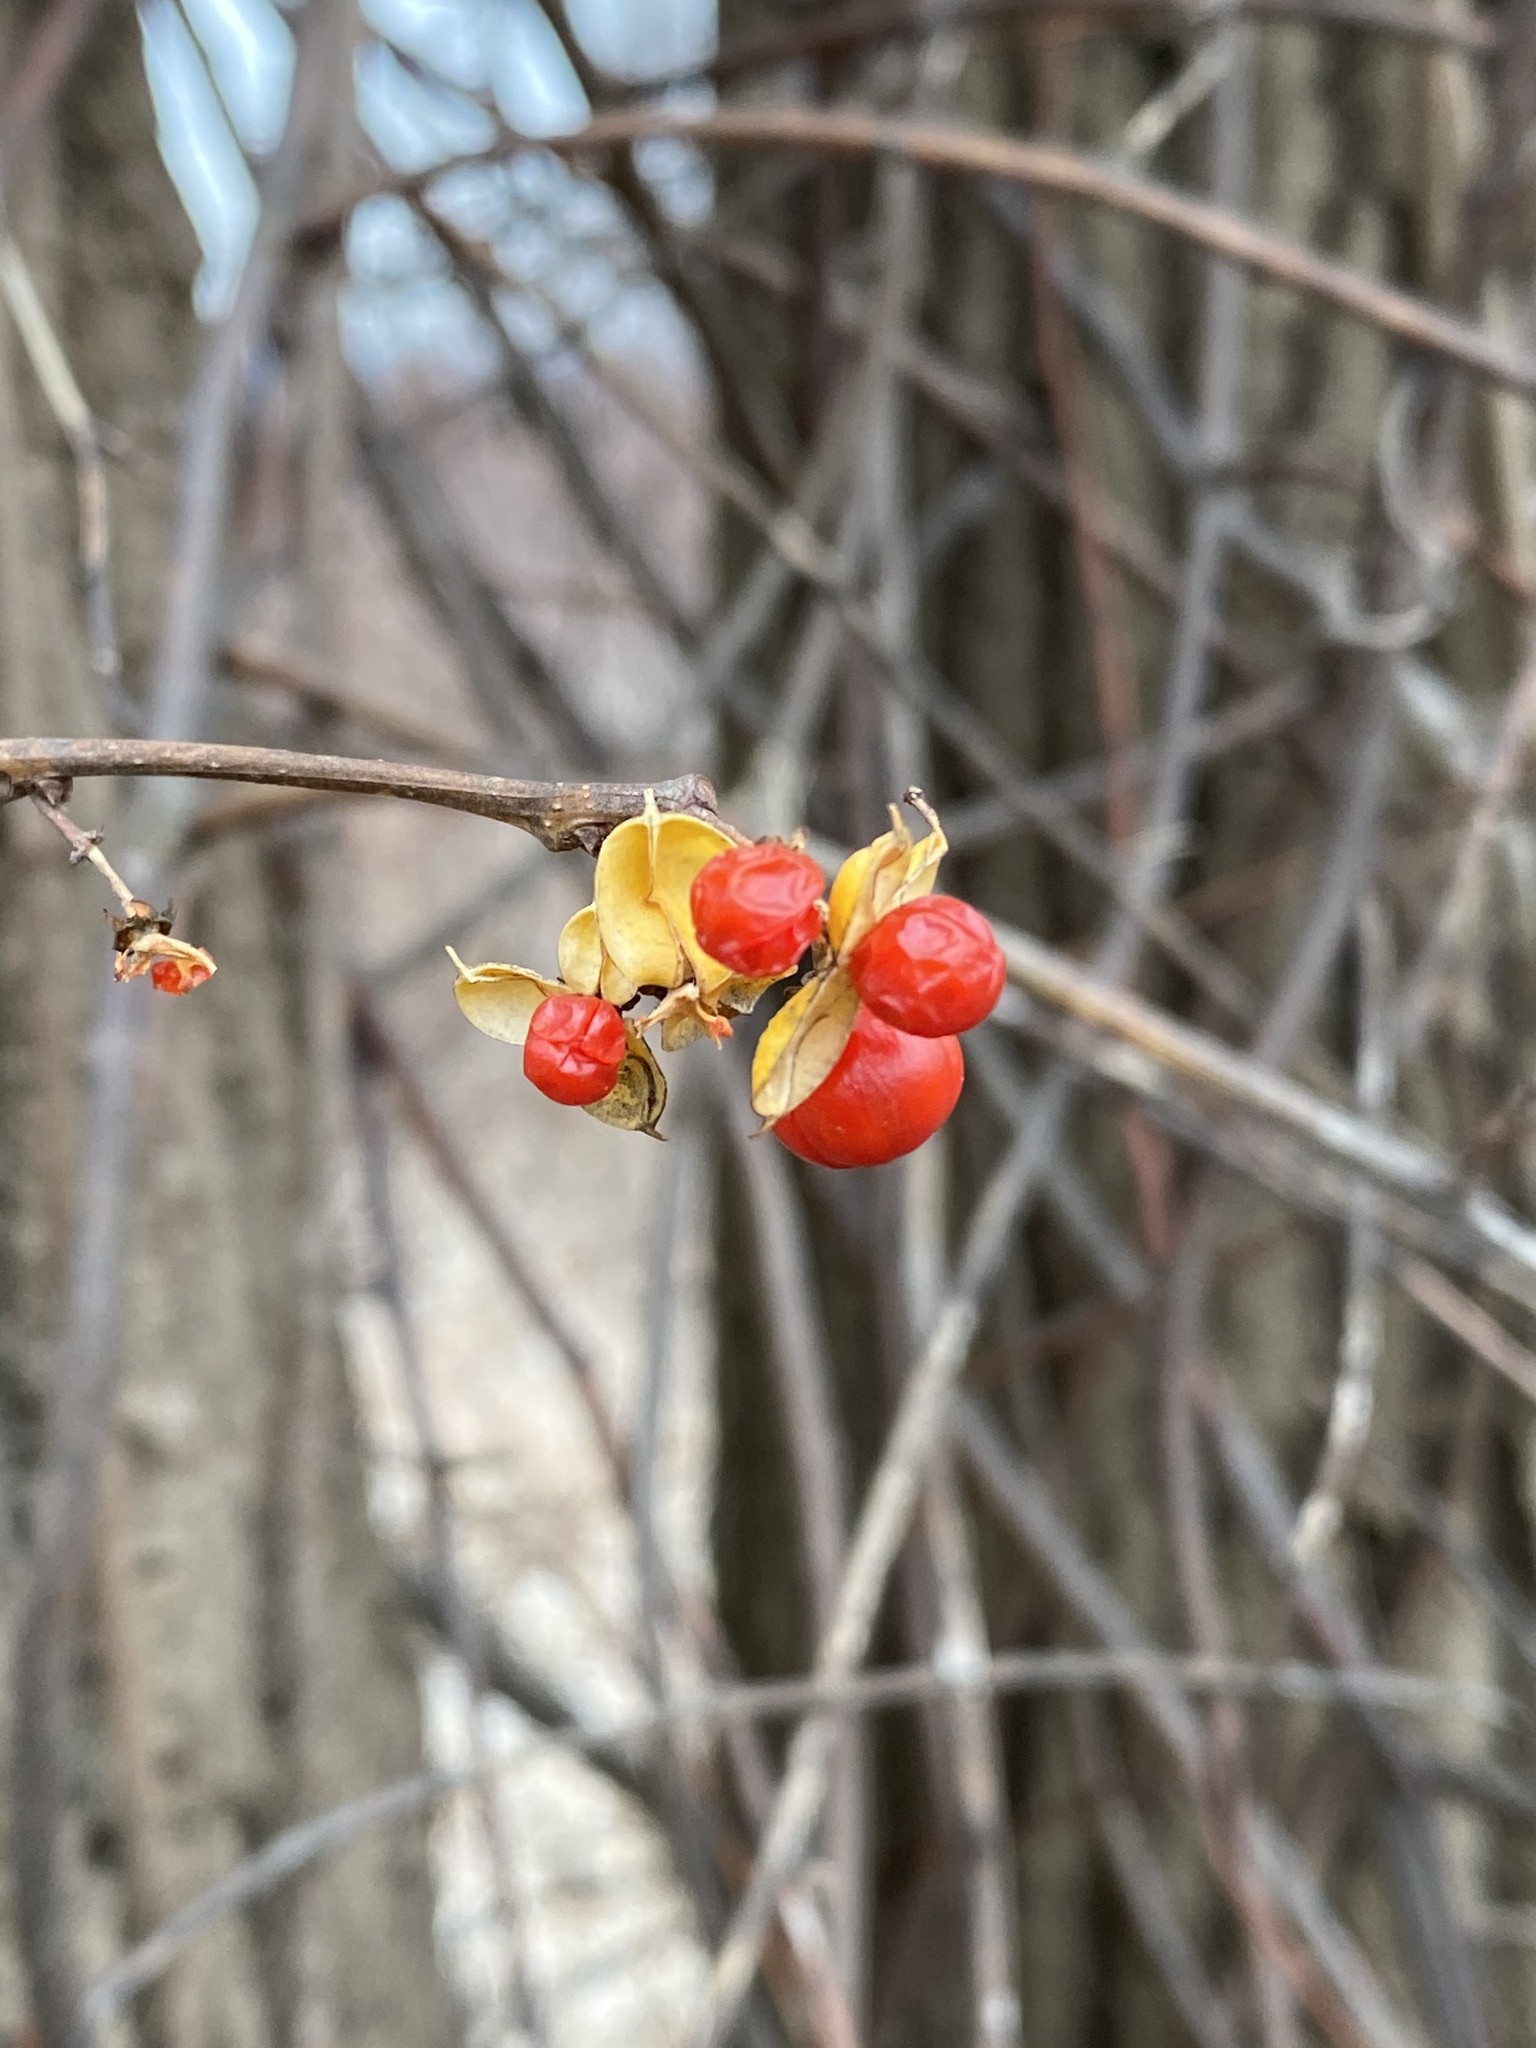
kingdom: Plantae
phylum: Tracheophyta
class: Magnoliopsida
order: Celastrales
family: Celastraceae
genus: Celastrus
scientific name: Celastrus orbiculatus
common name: Oriental bittersweet
